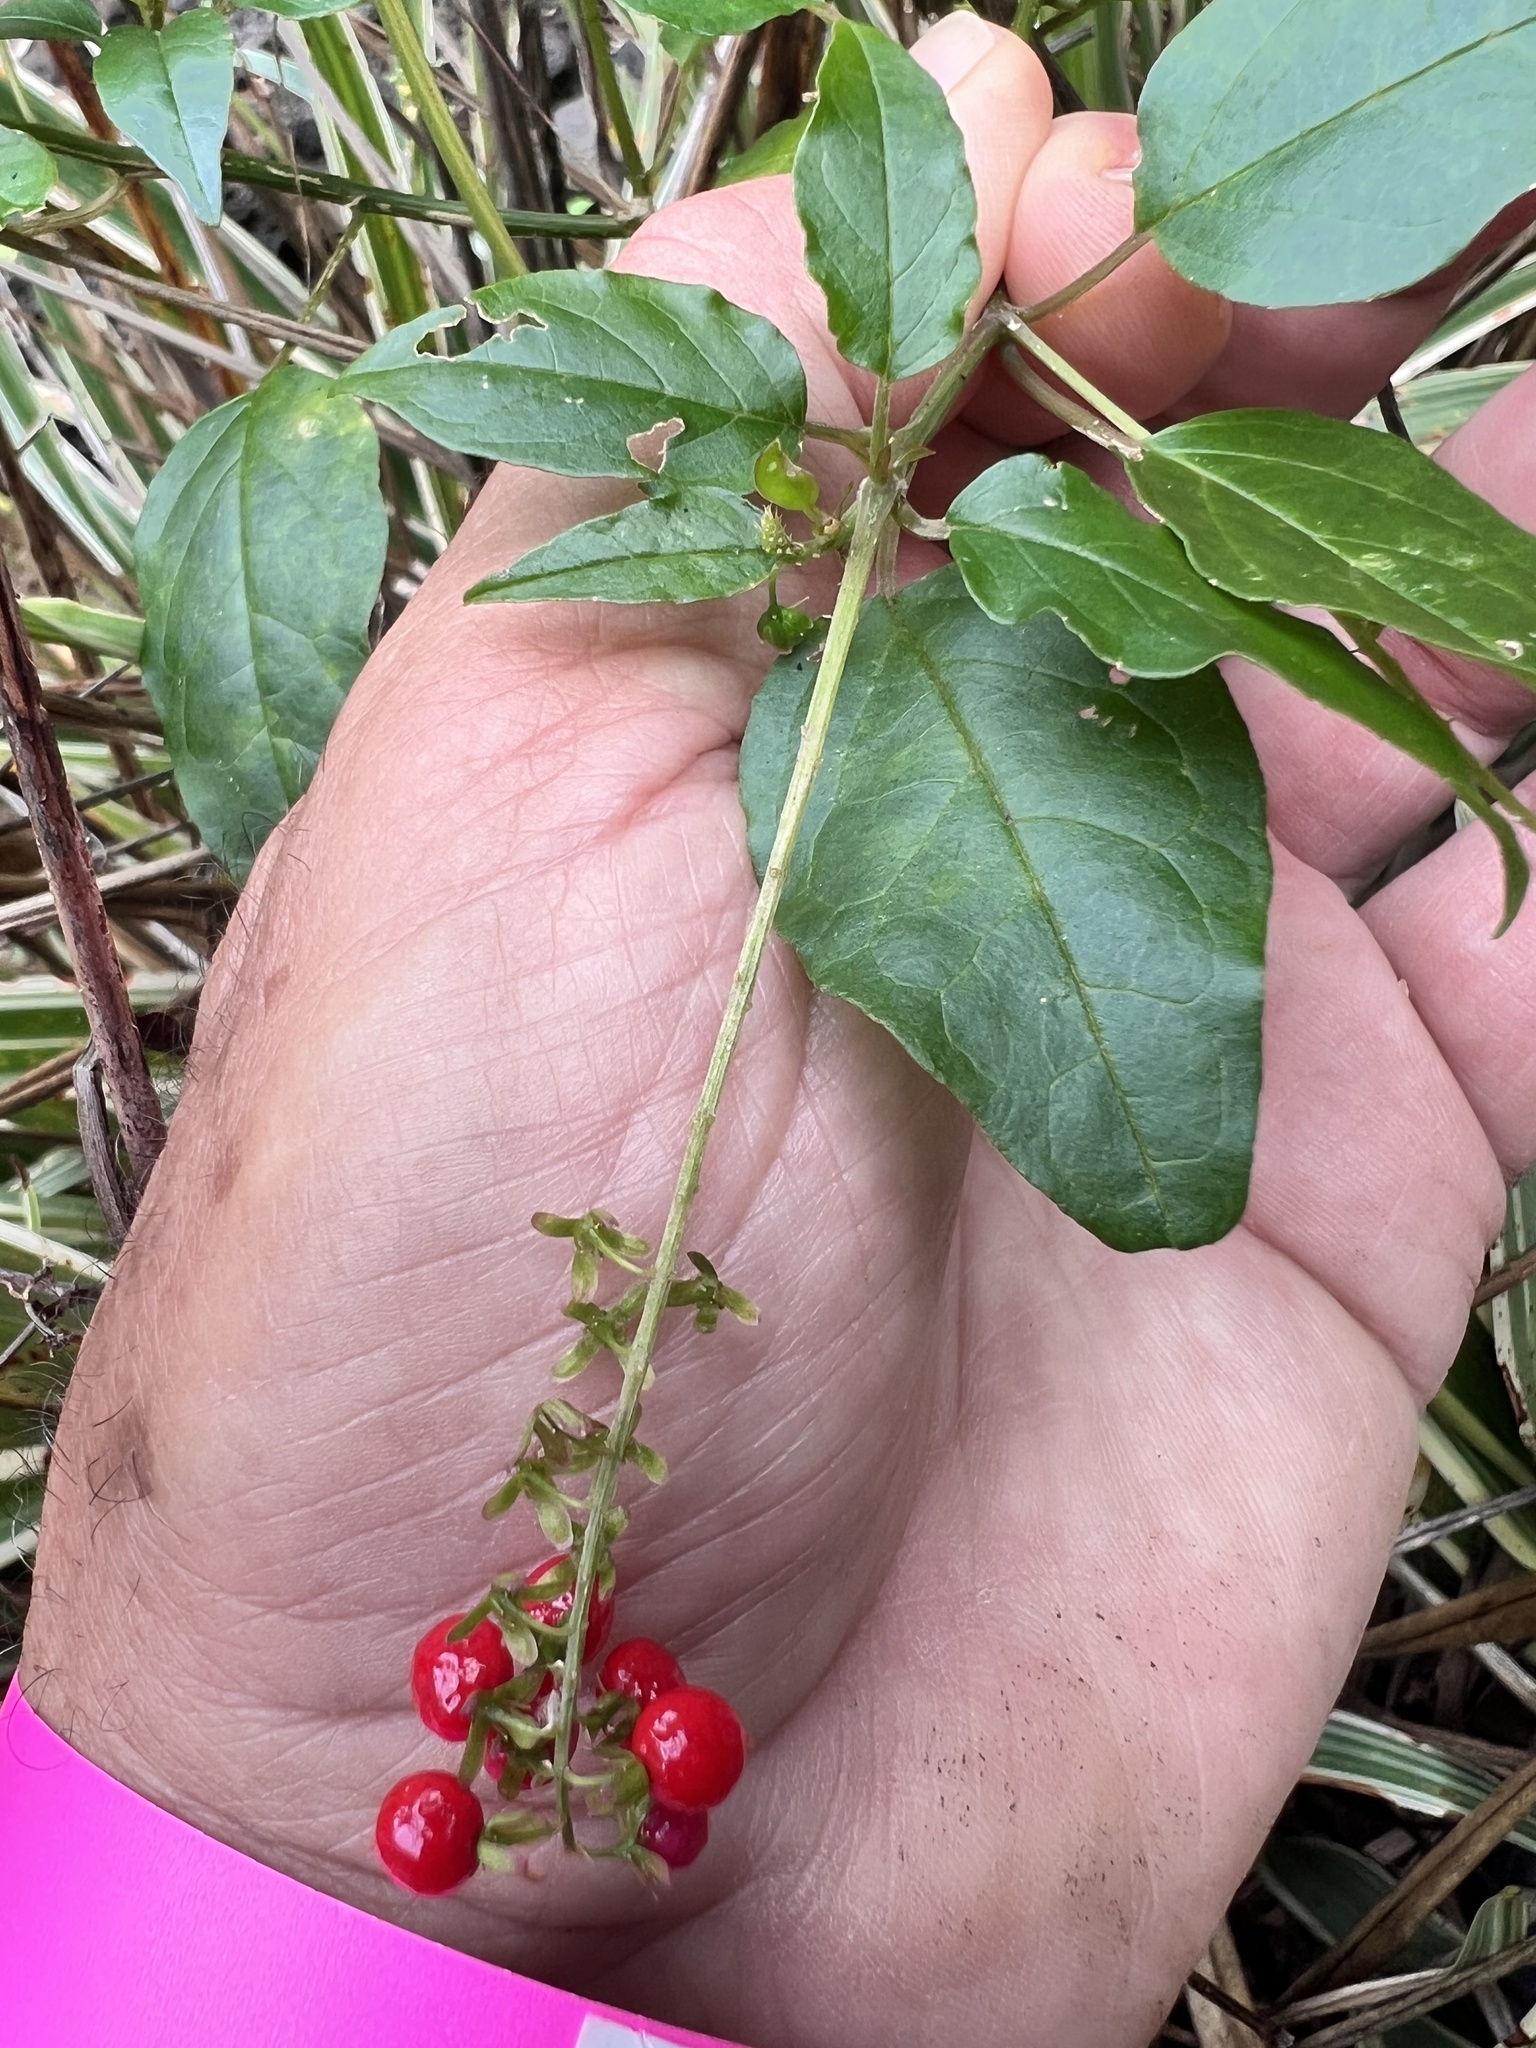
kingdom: Plantae
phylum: Tracheophyta
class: Magnoliopsida
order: Caryophyllales
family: Phytolaccaceae
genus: Rivina
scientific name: Rivina humilis
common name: Rougeplant
